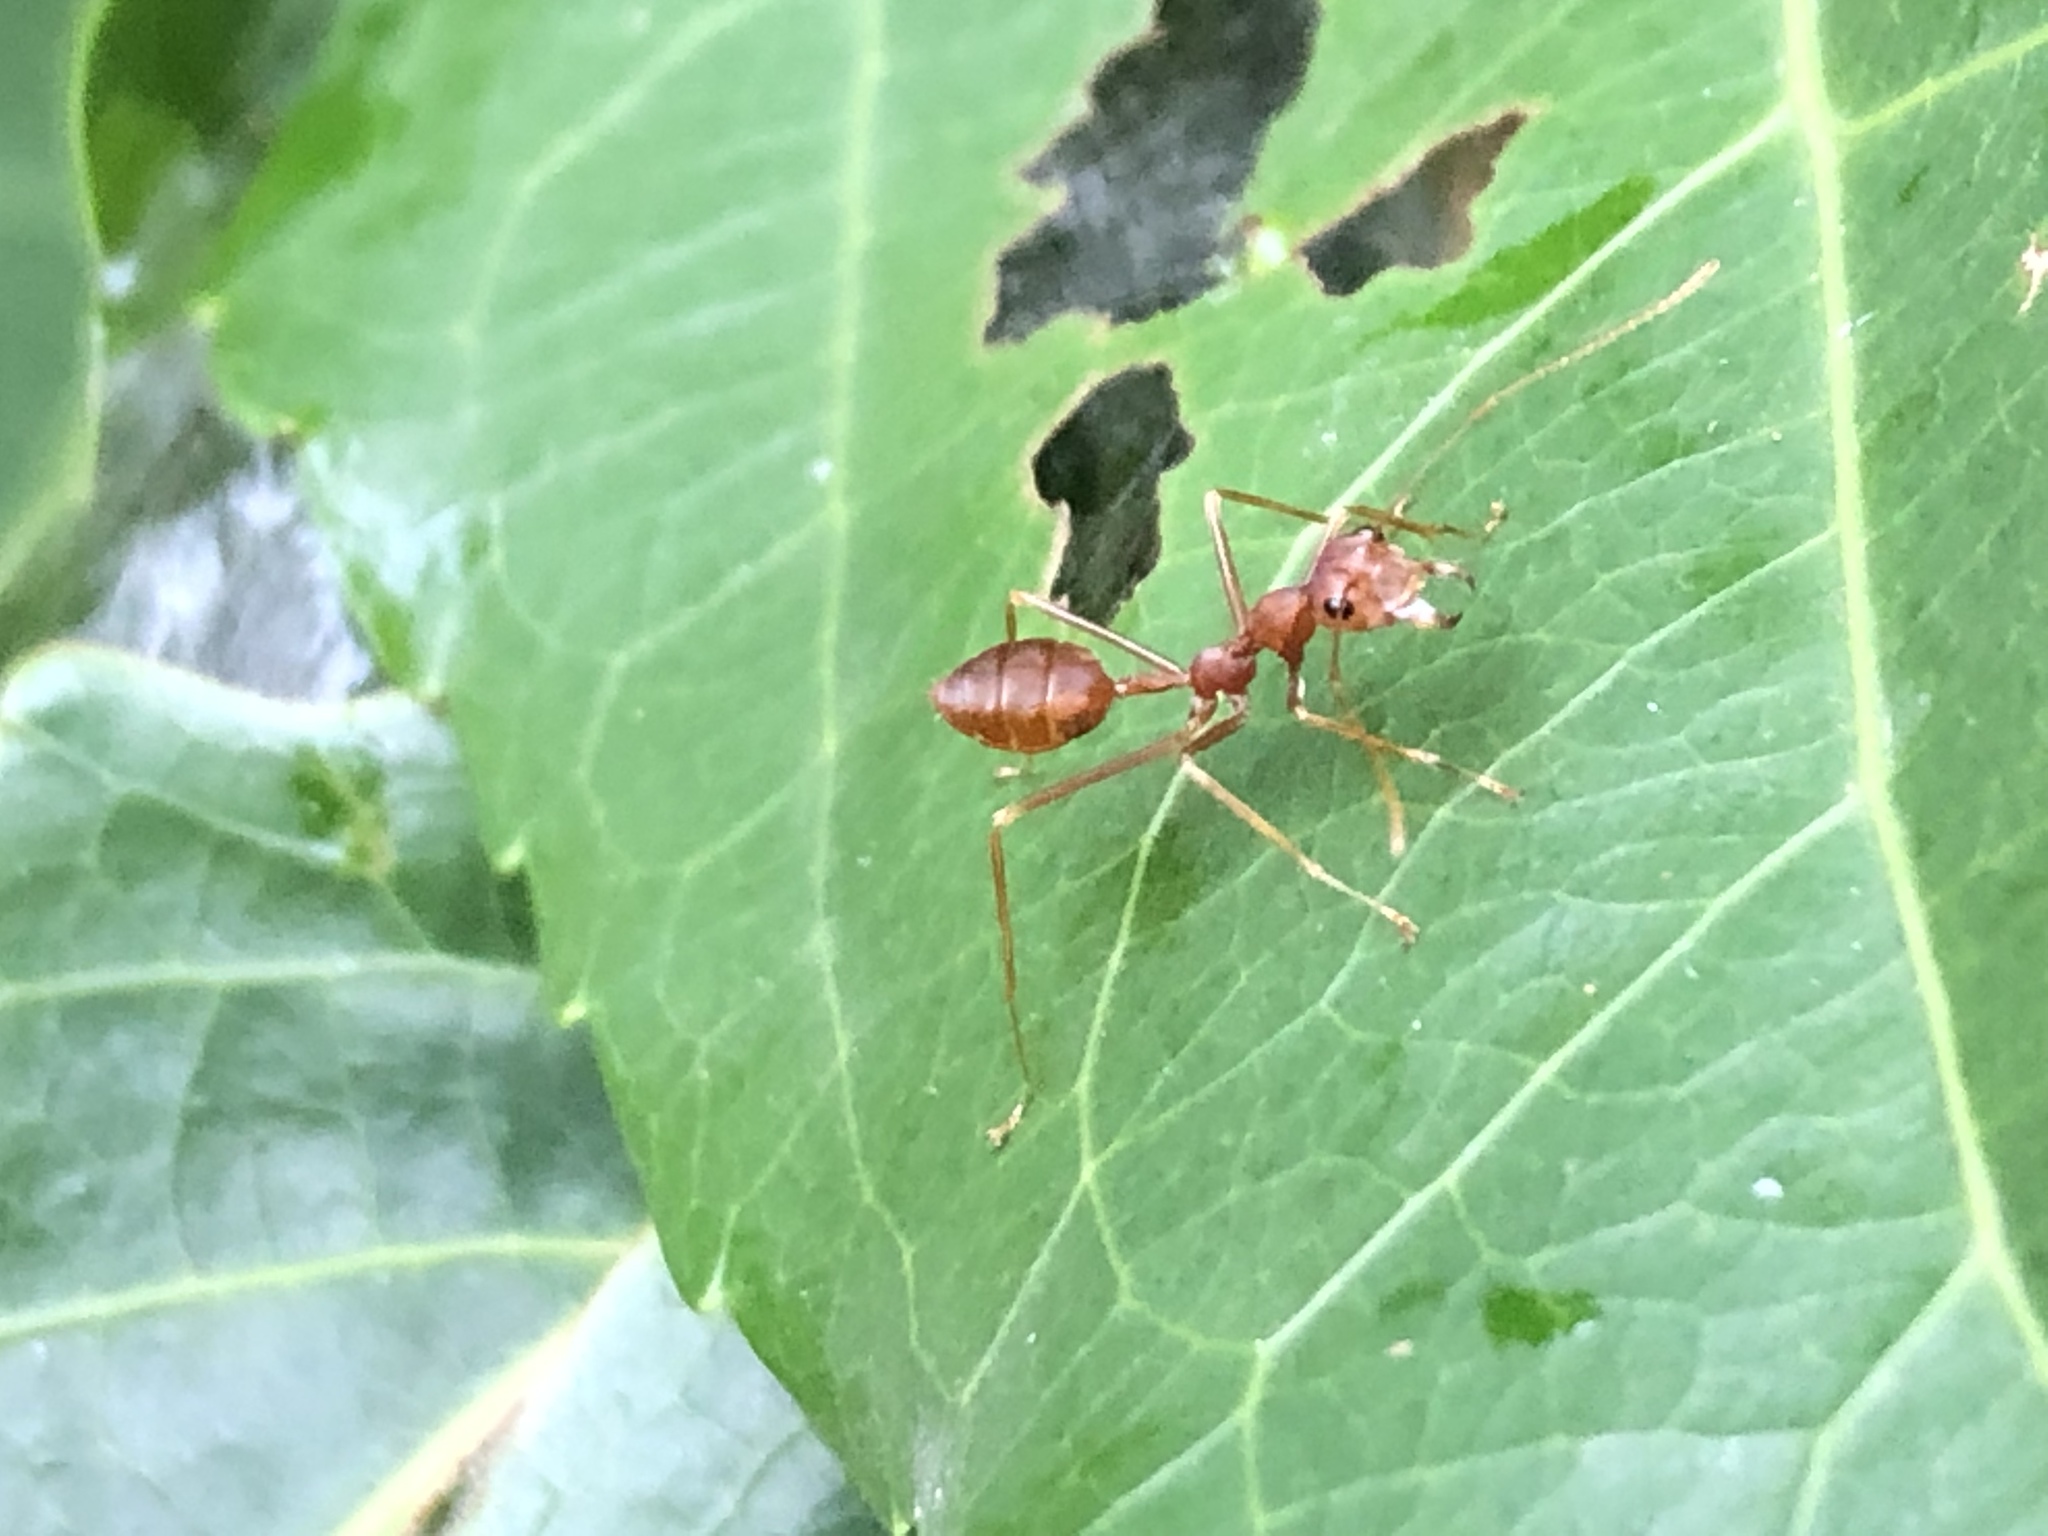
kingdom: Animalia
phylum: Arthropoda
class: Insecta
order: Hymenoptera
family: Formicidae
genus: Oecophylla
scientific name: Oecophylla smaragdina
